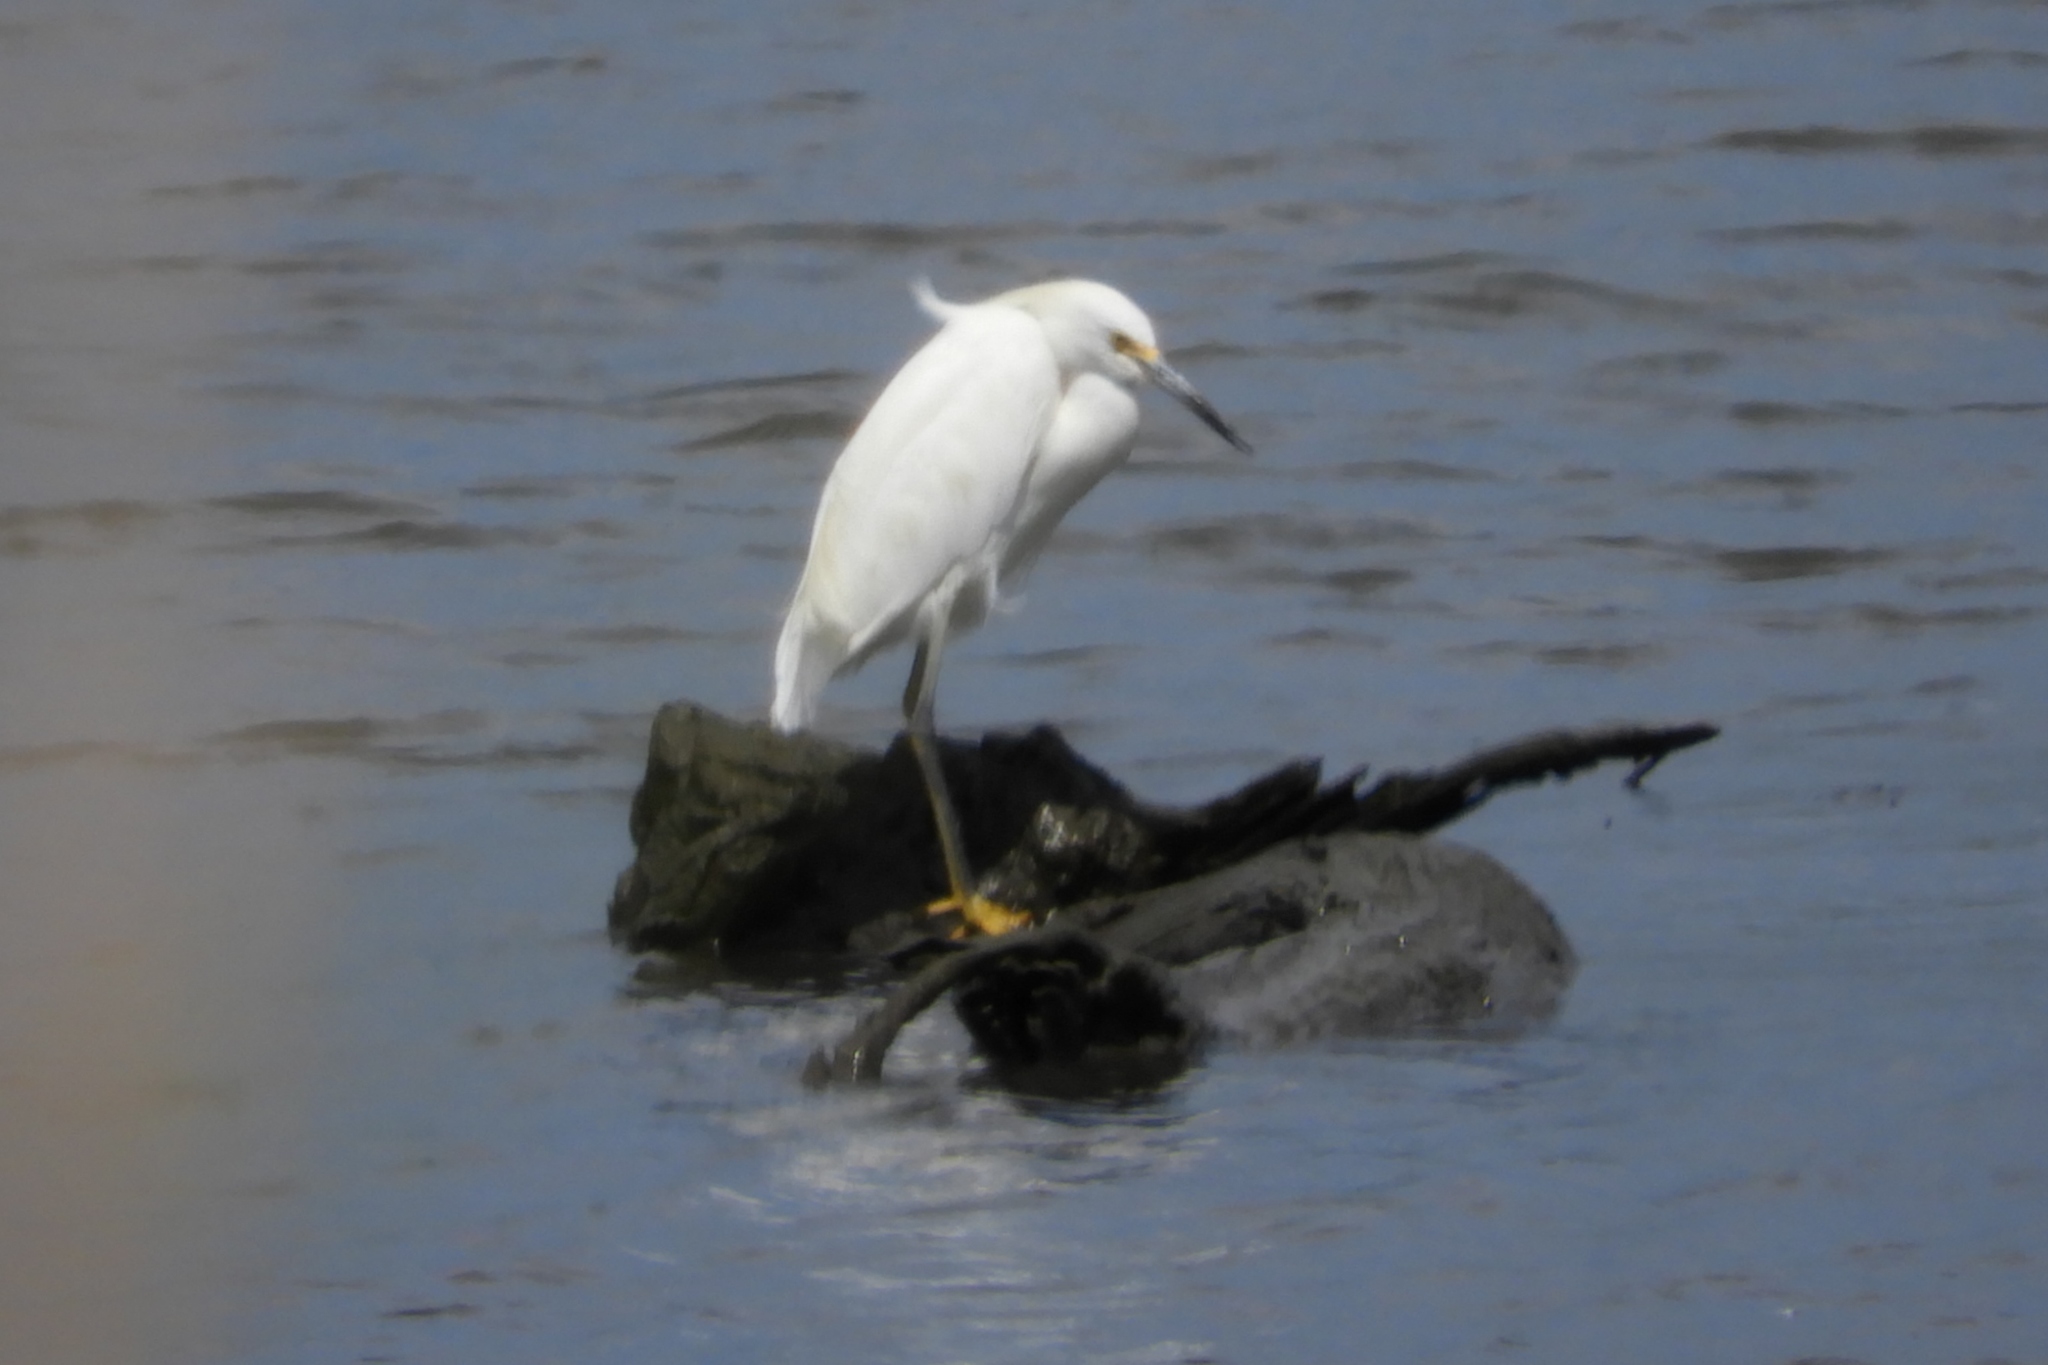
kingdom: Animalia
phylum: Chordata
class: Aves
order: Pelecaniformes
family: Ardeidae
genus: Egretta
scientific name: Egretta thula
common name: Snowy egret
